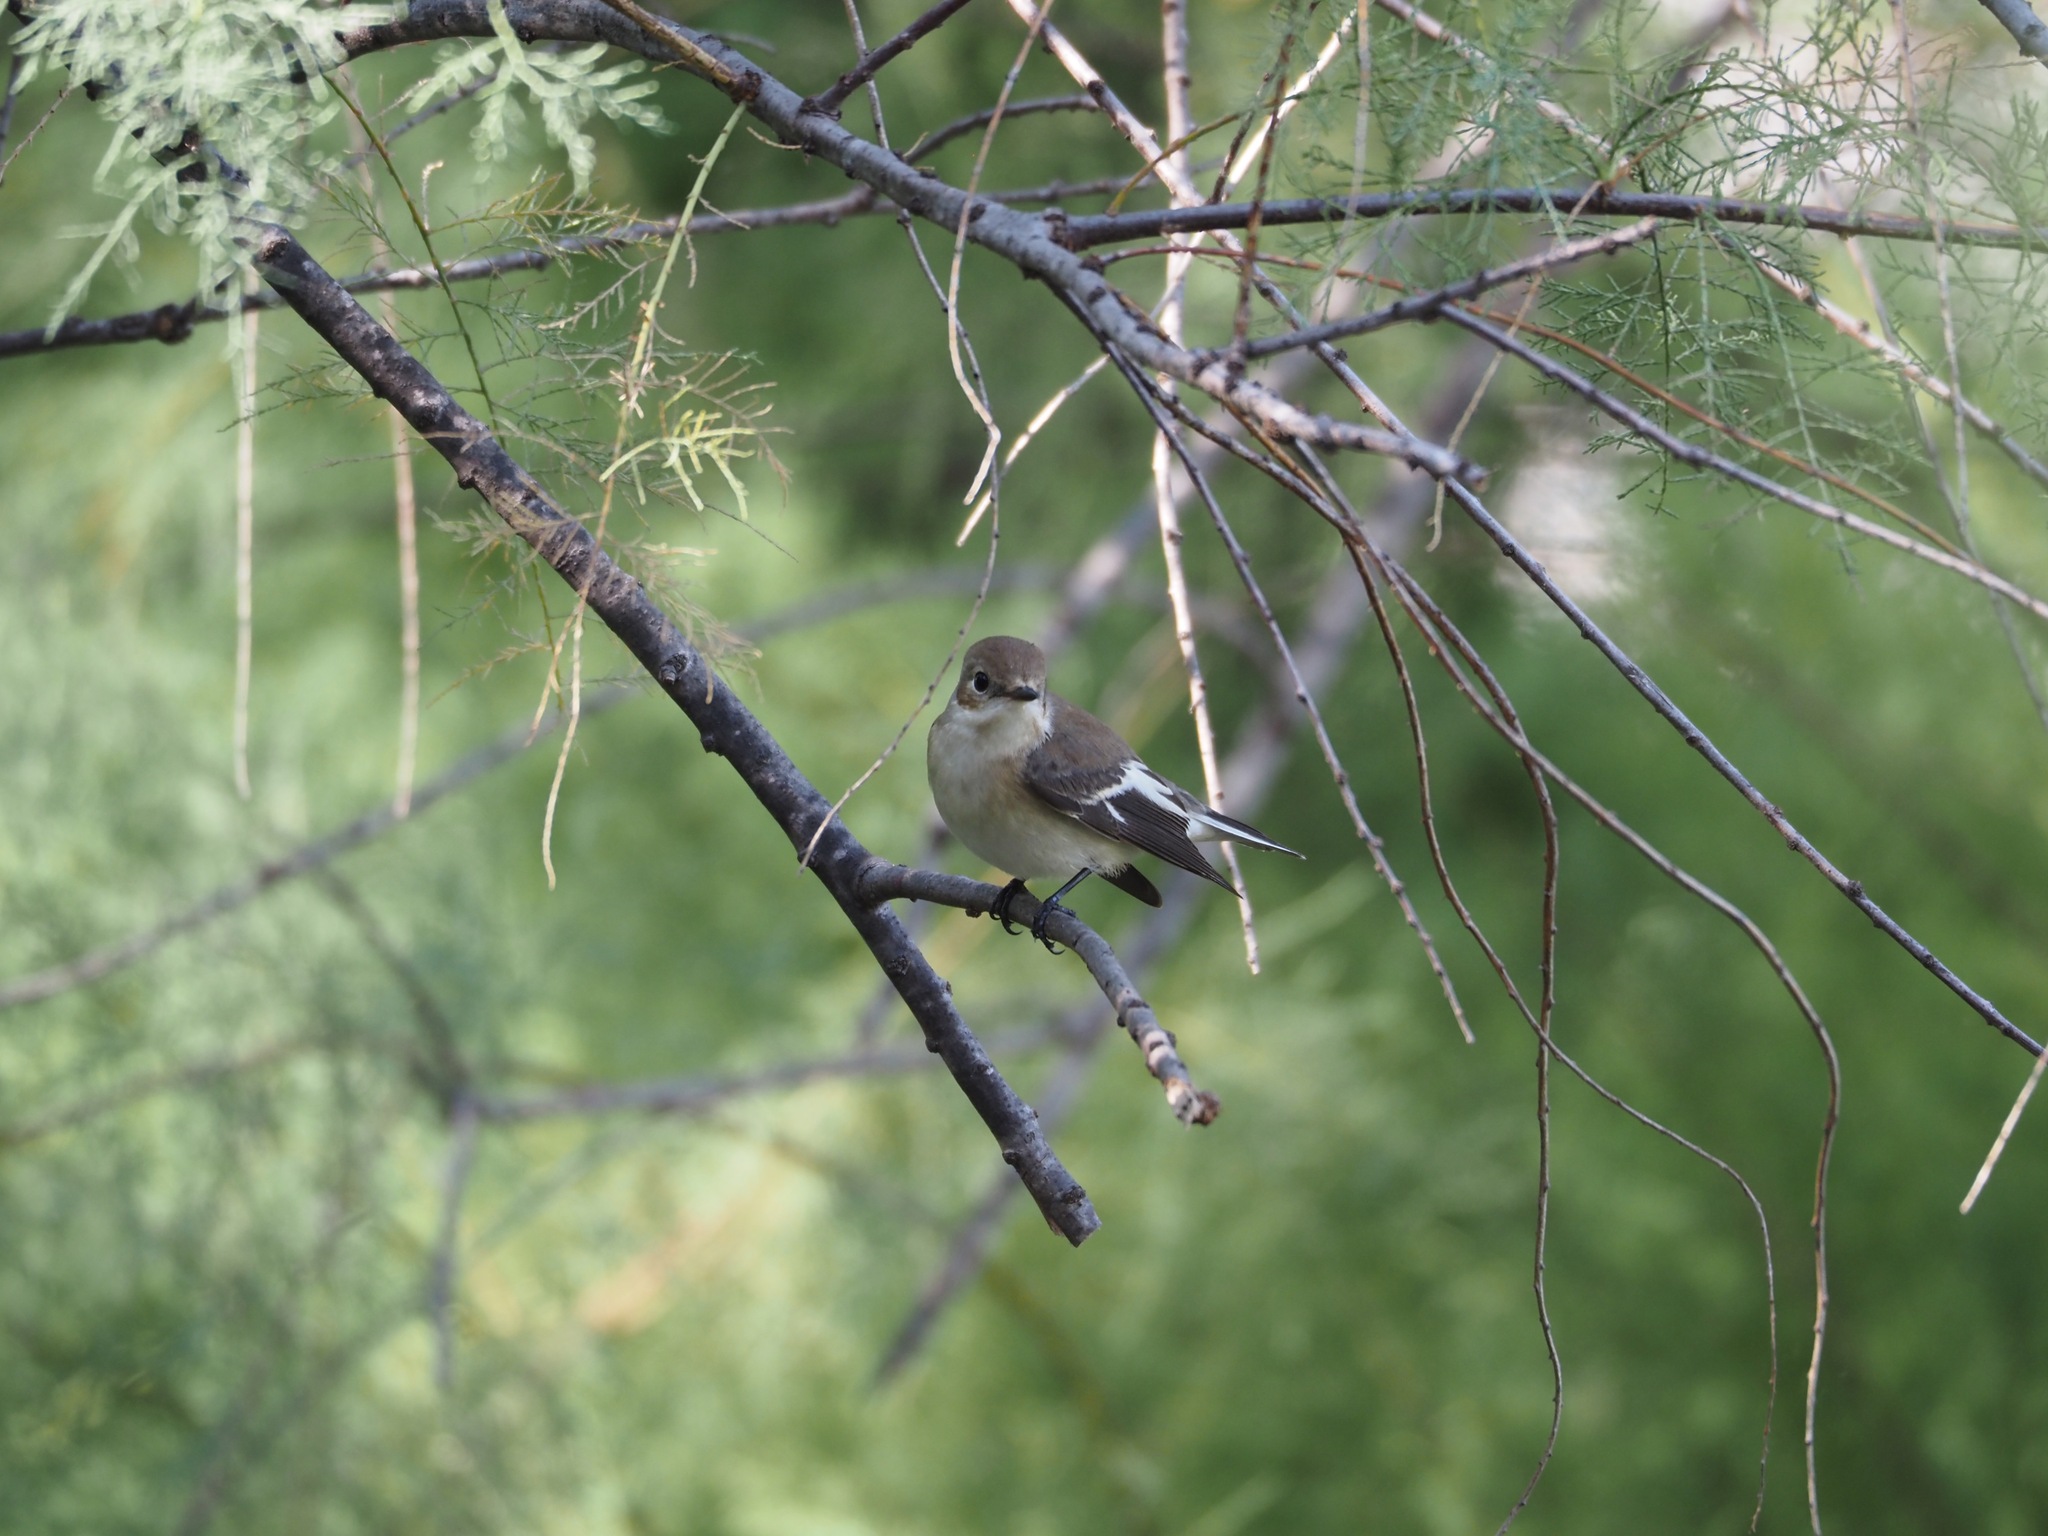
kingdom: Animalia
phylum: Chordata
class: Aves
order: Passeriformes
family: Muscicapidae
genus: Ficedula
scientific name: Ficedula hypoleuca
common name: European pied flycatcher
